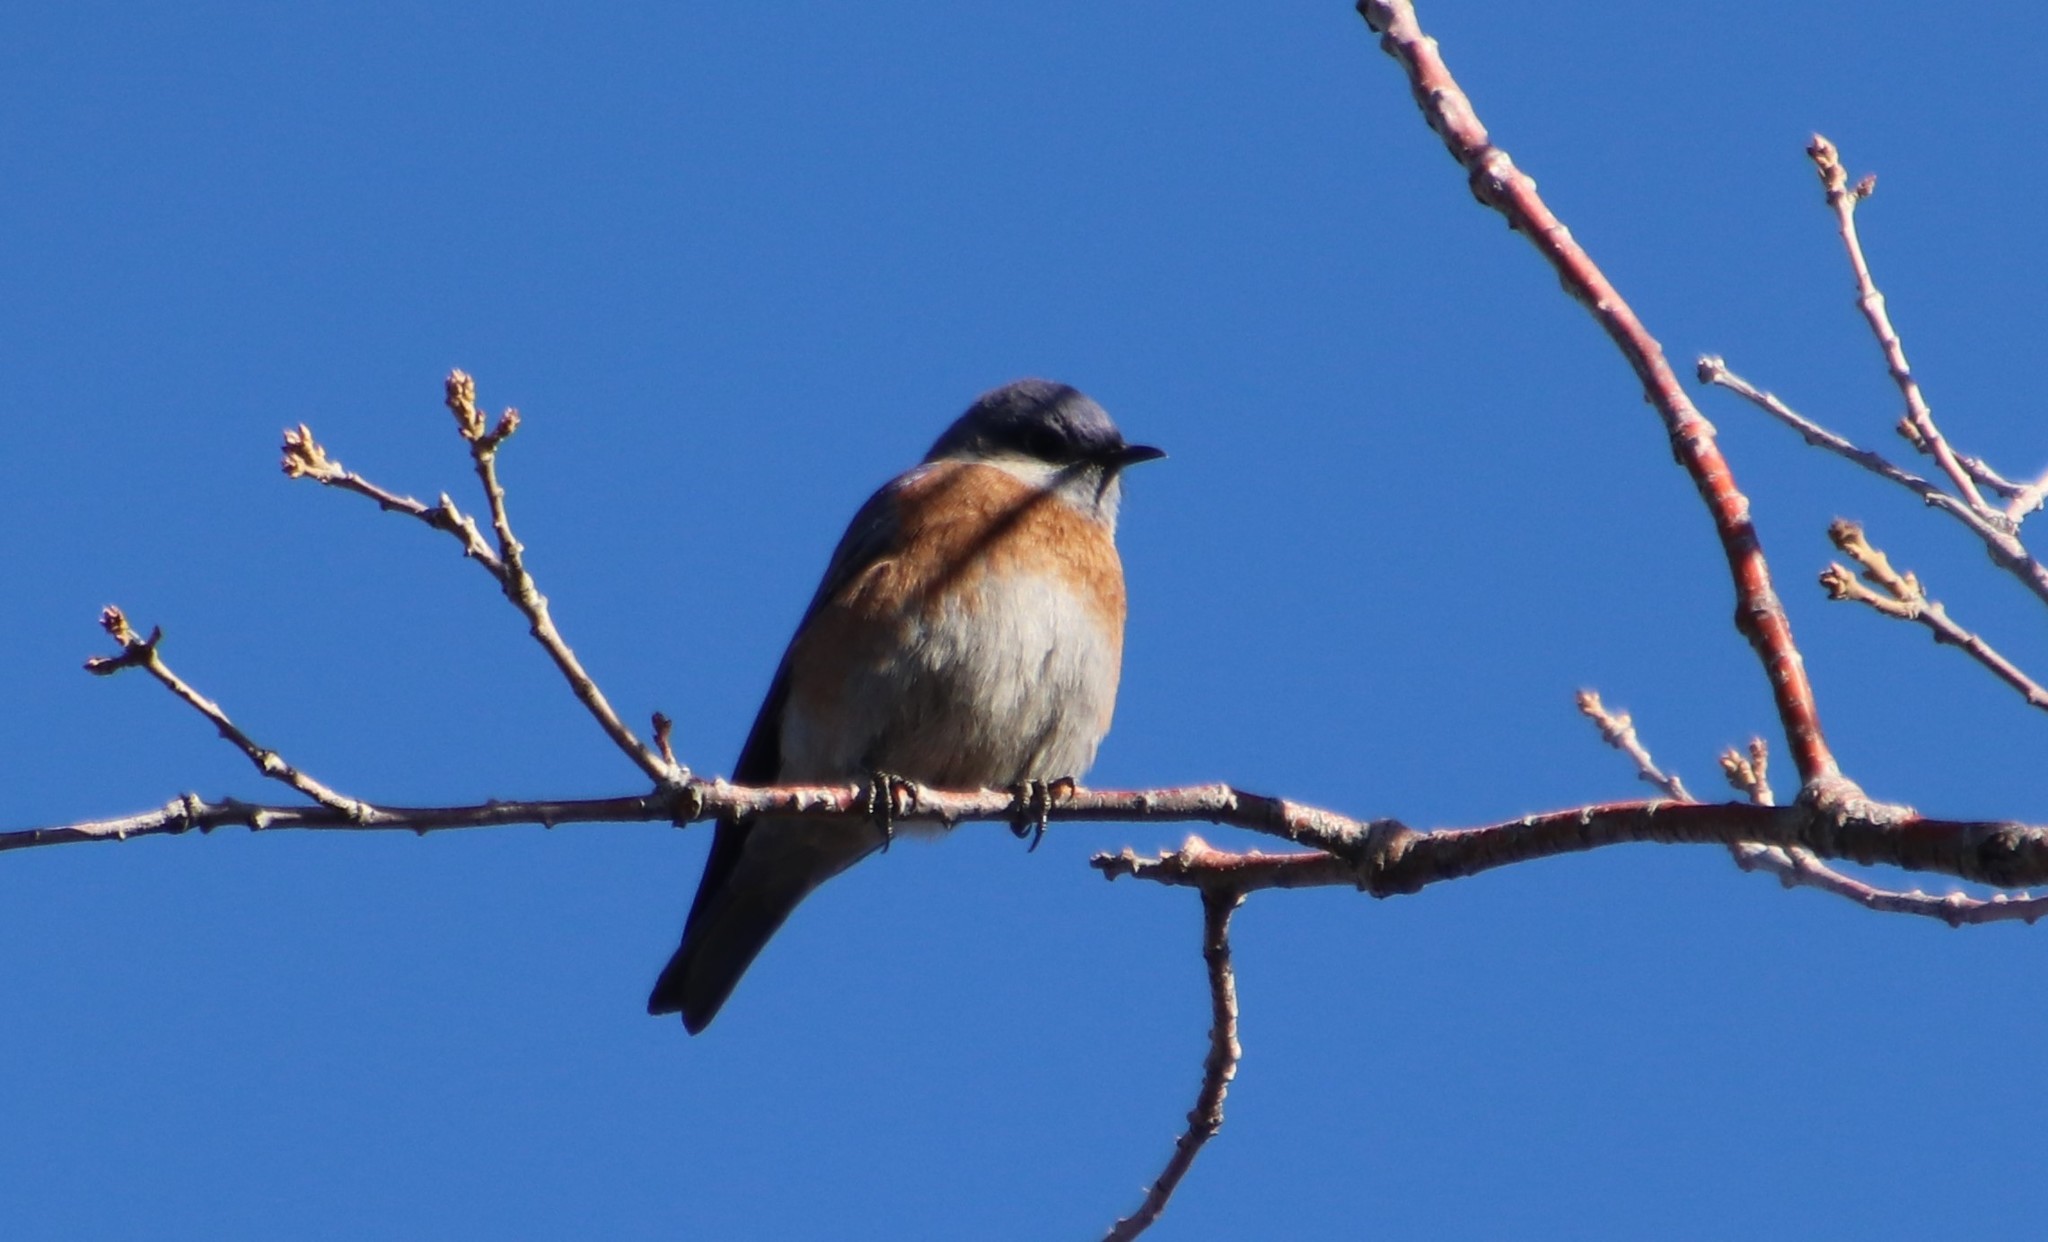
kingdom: Animalia
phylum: Chordata
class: Aves
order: Passeriformes
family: Turdidae
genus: Sialia
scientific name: Sialia mexicana
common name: Western bluebird
